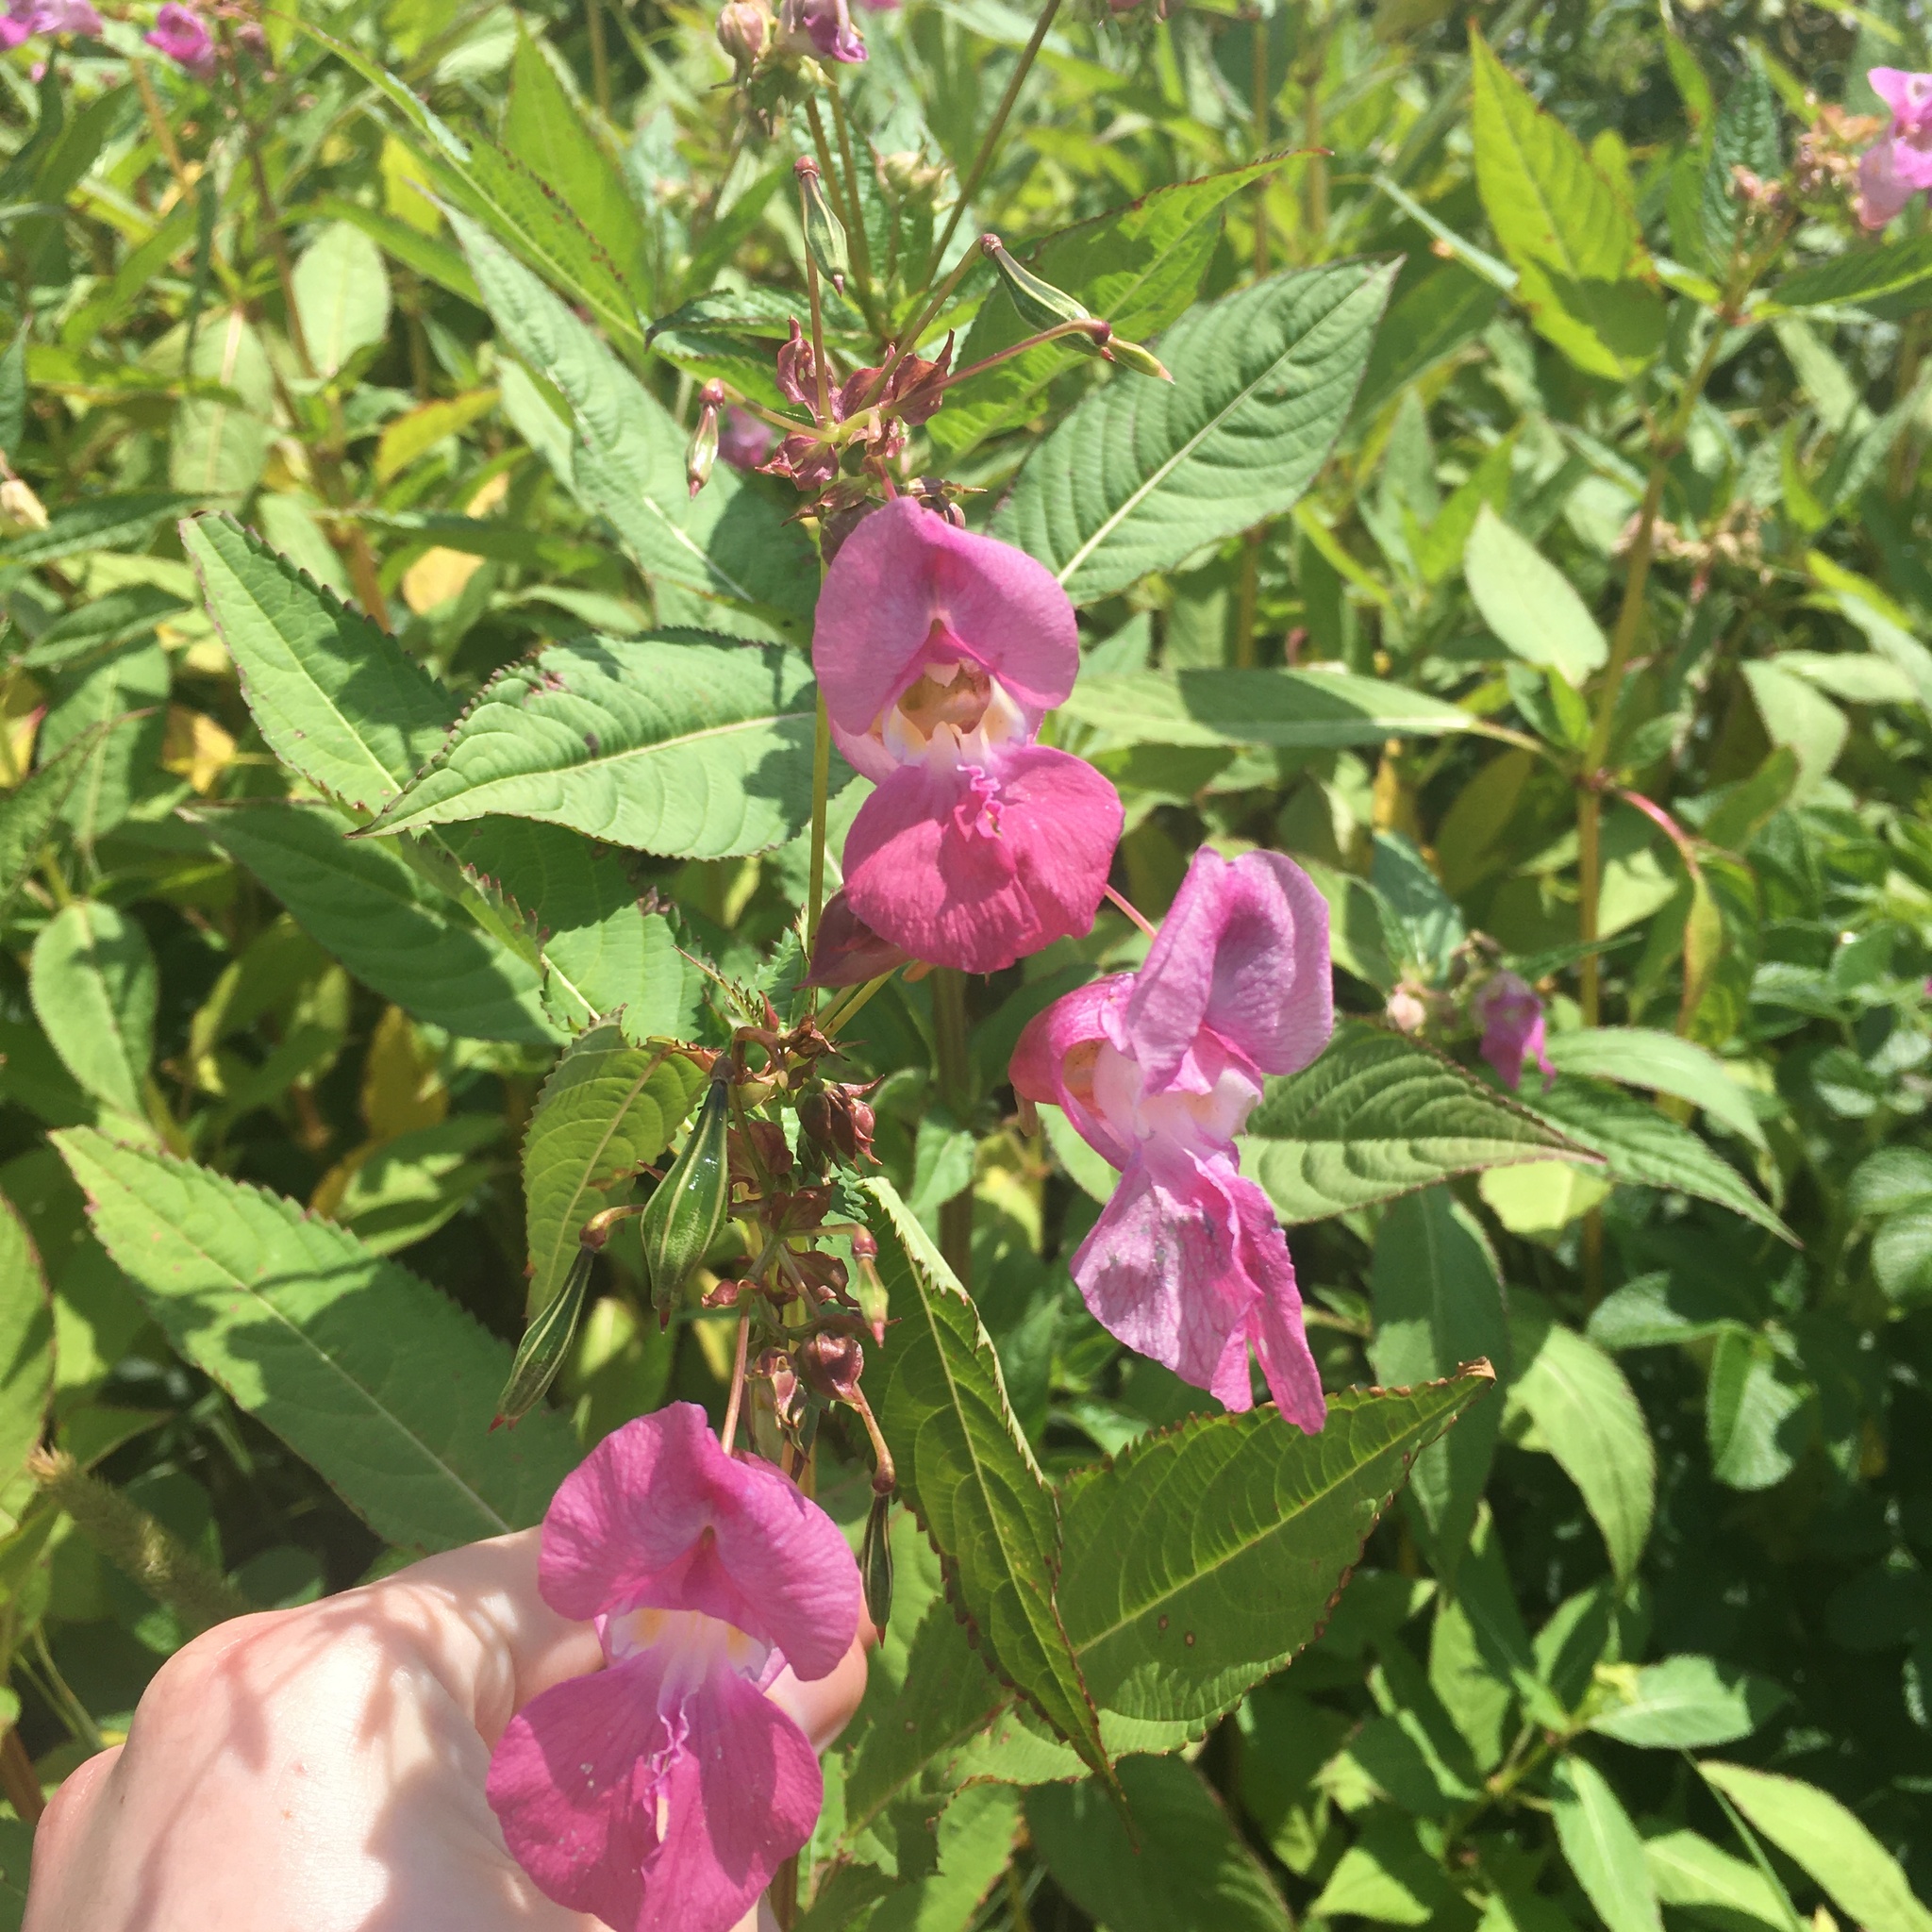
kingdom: Plantae
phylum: Tracheophyta
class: Magnoliopsida
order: Ericales
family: Balsaminaceae
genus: Impatiens
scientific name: Impatiens glandulifera
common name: Himalayan balsam
